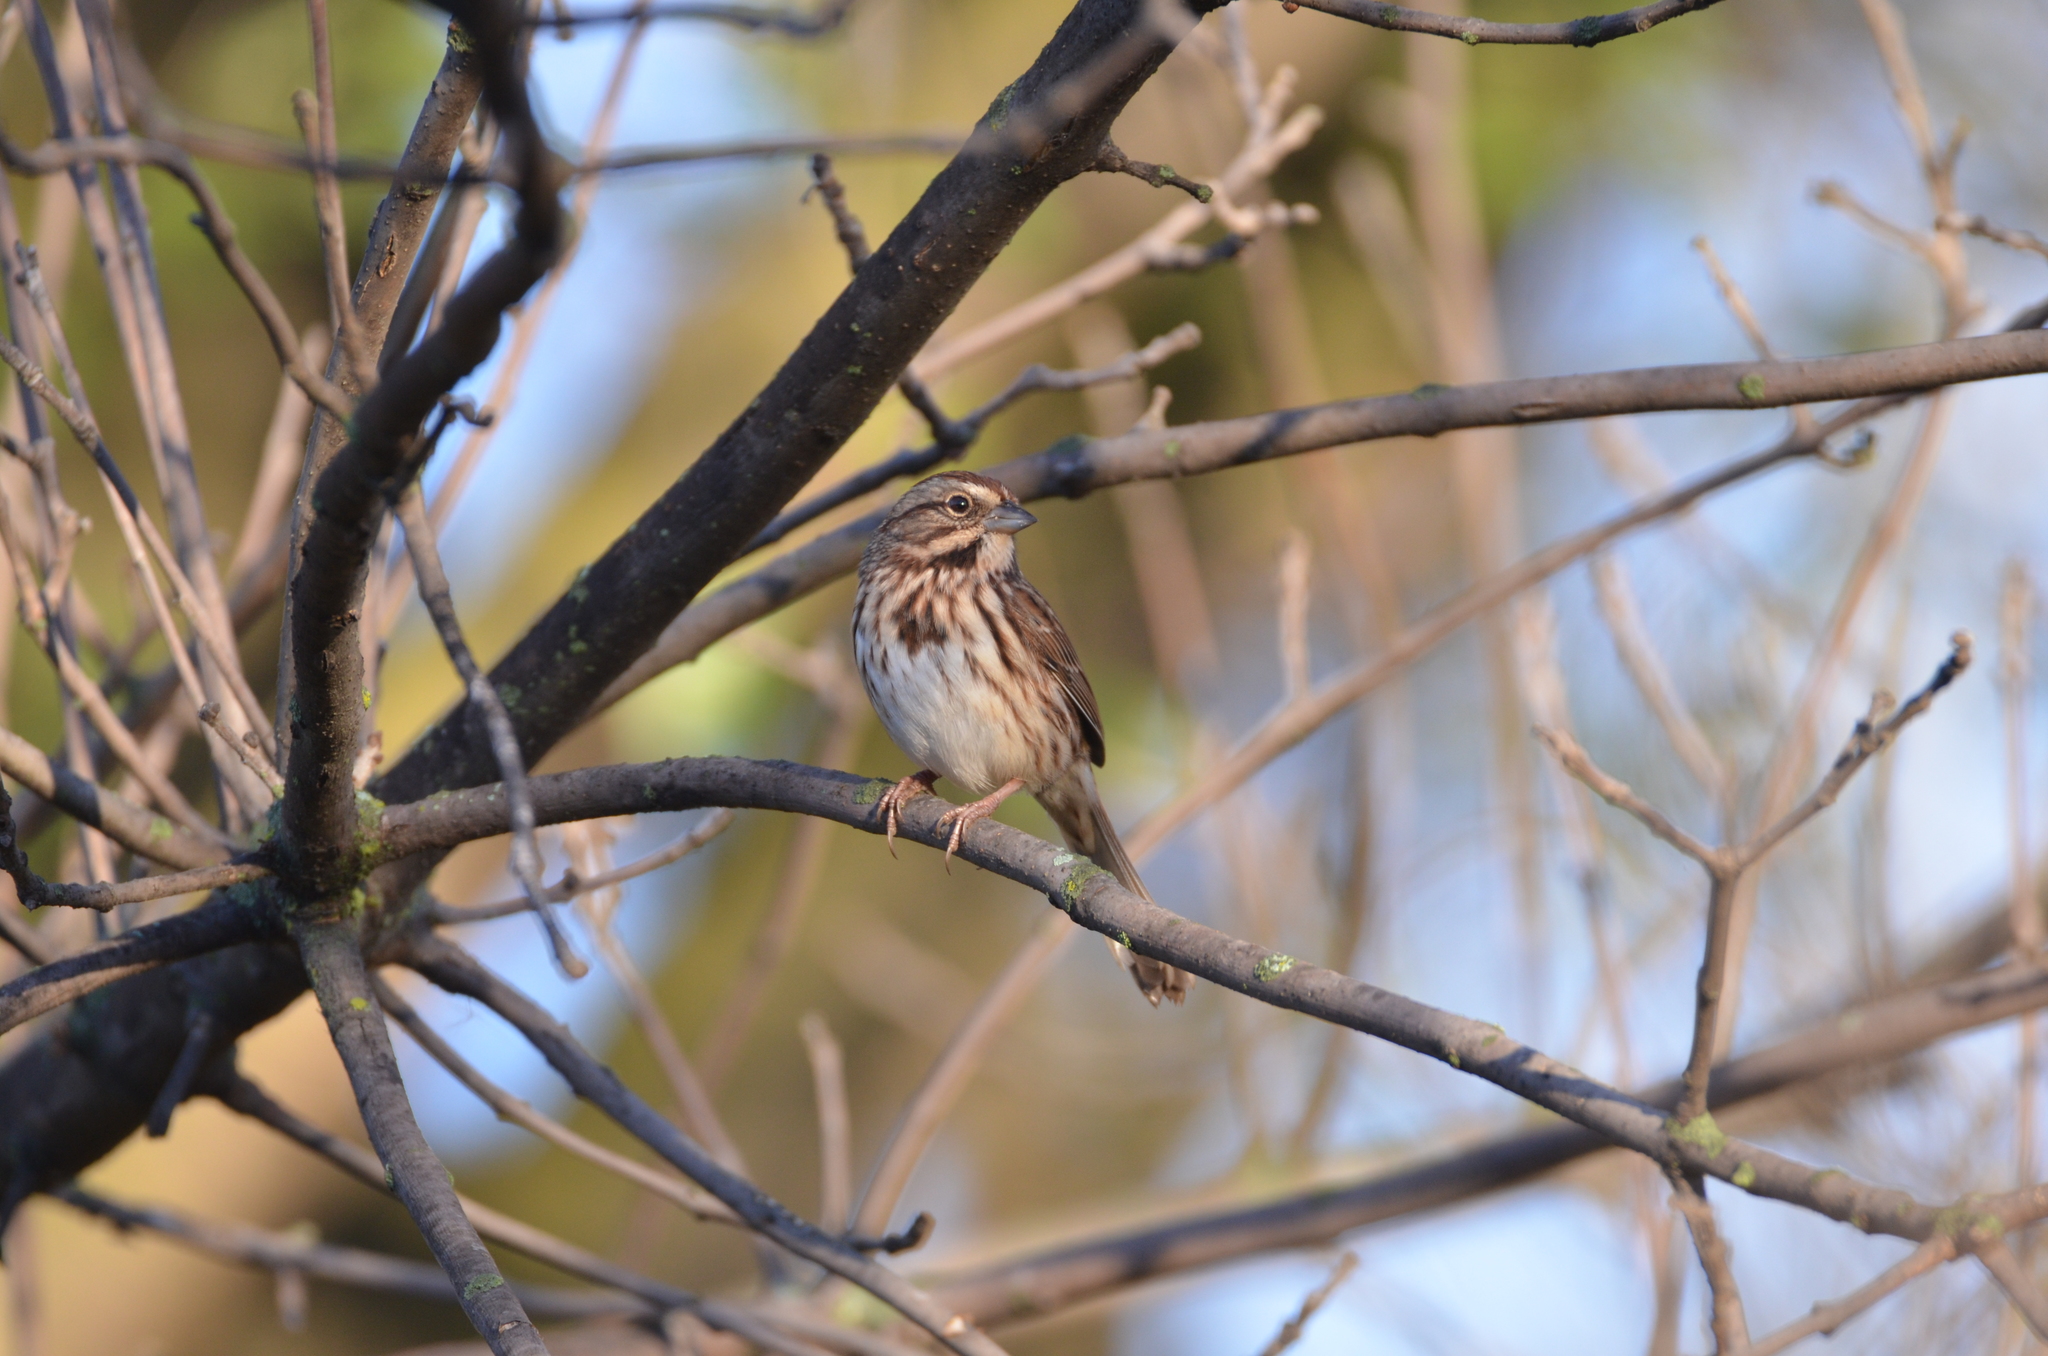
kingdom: Animalia
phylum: Chordata
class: Aves
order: Passeriformes
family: Passerellidae
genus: Melospiza
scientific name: Melospiza melodia
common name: Song sparrow
